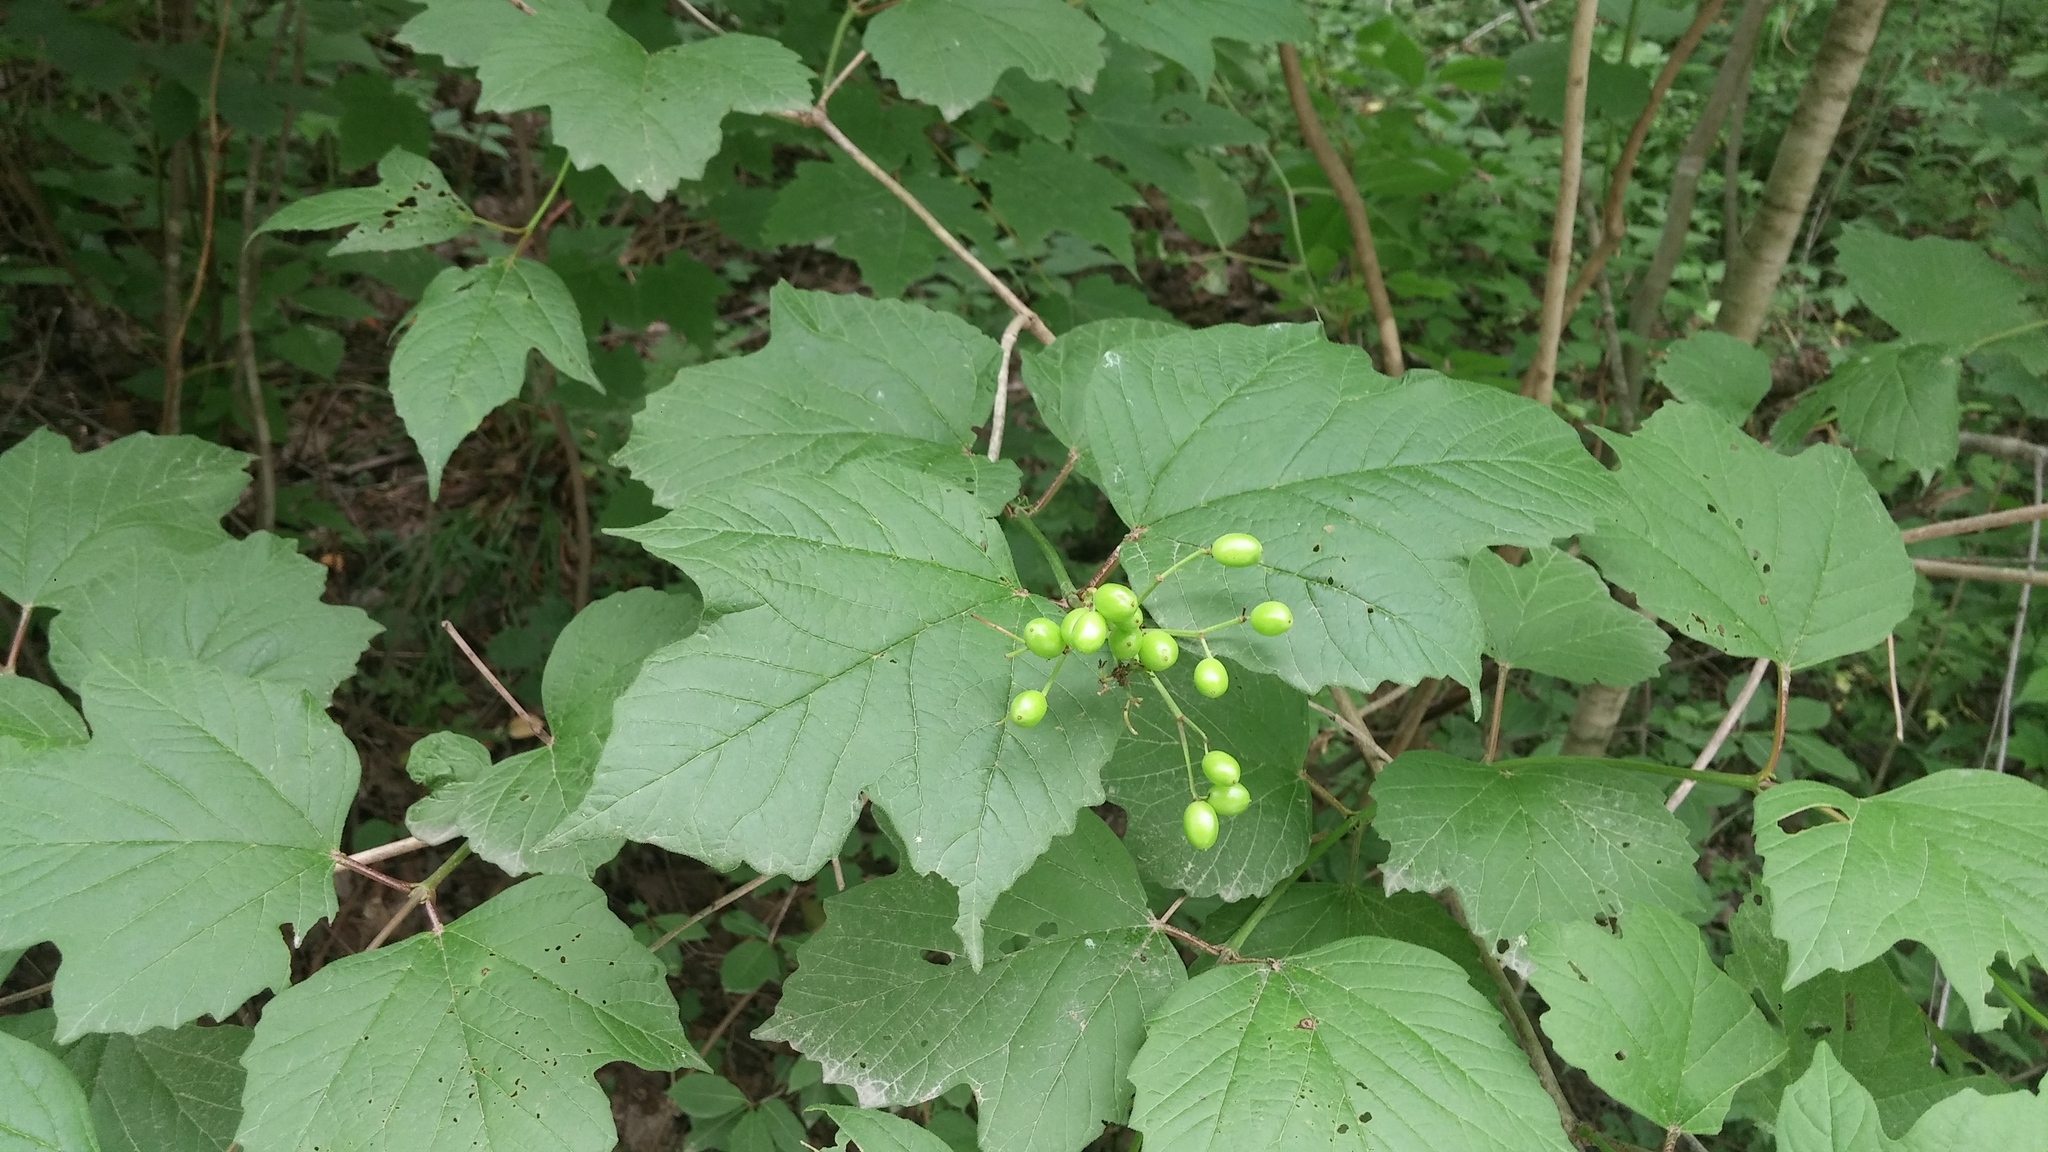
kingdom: Plantae
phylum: Tracheophyta
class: Magnoliopsida
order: Dipsacales
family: Viburnaceae
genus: Viburnum
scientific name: Viburnum trilobum
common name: American cranberrybush
